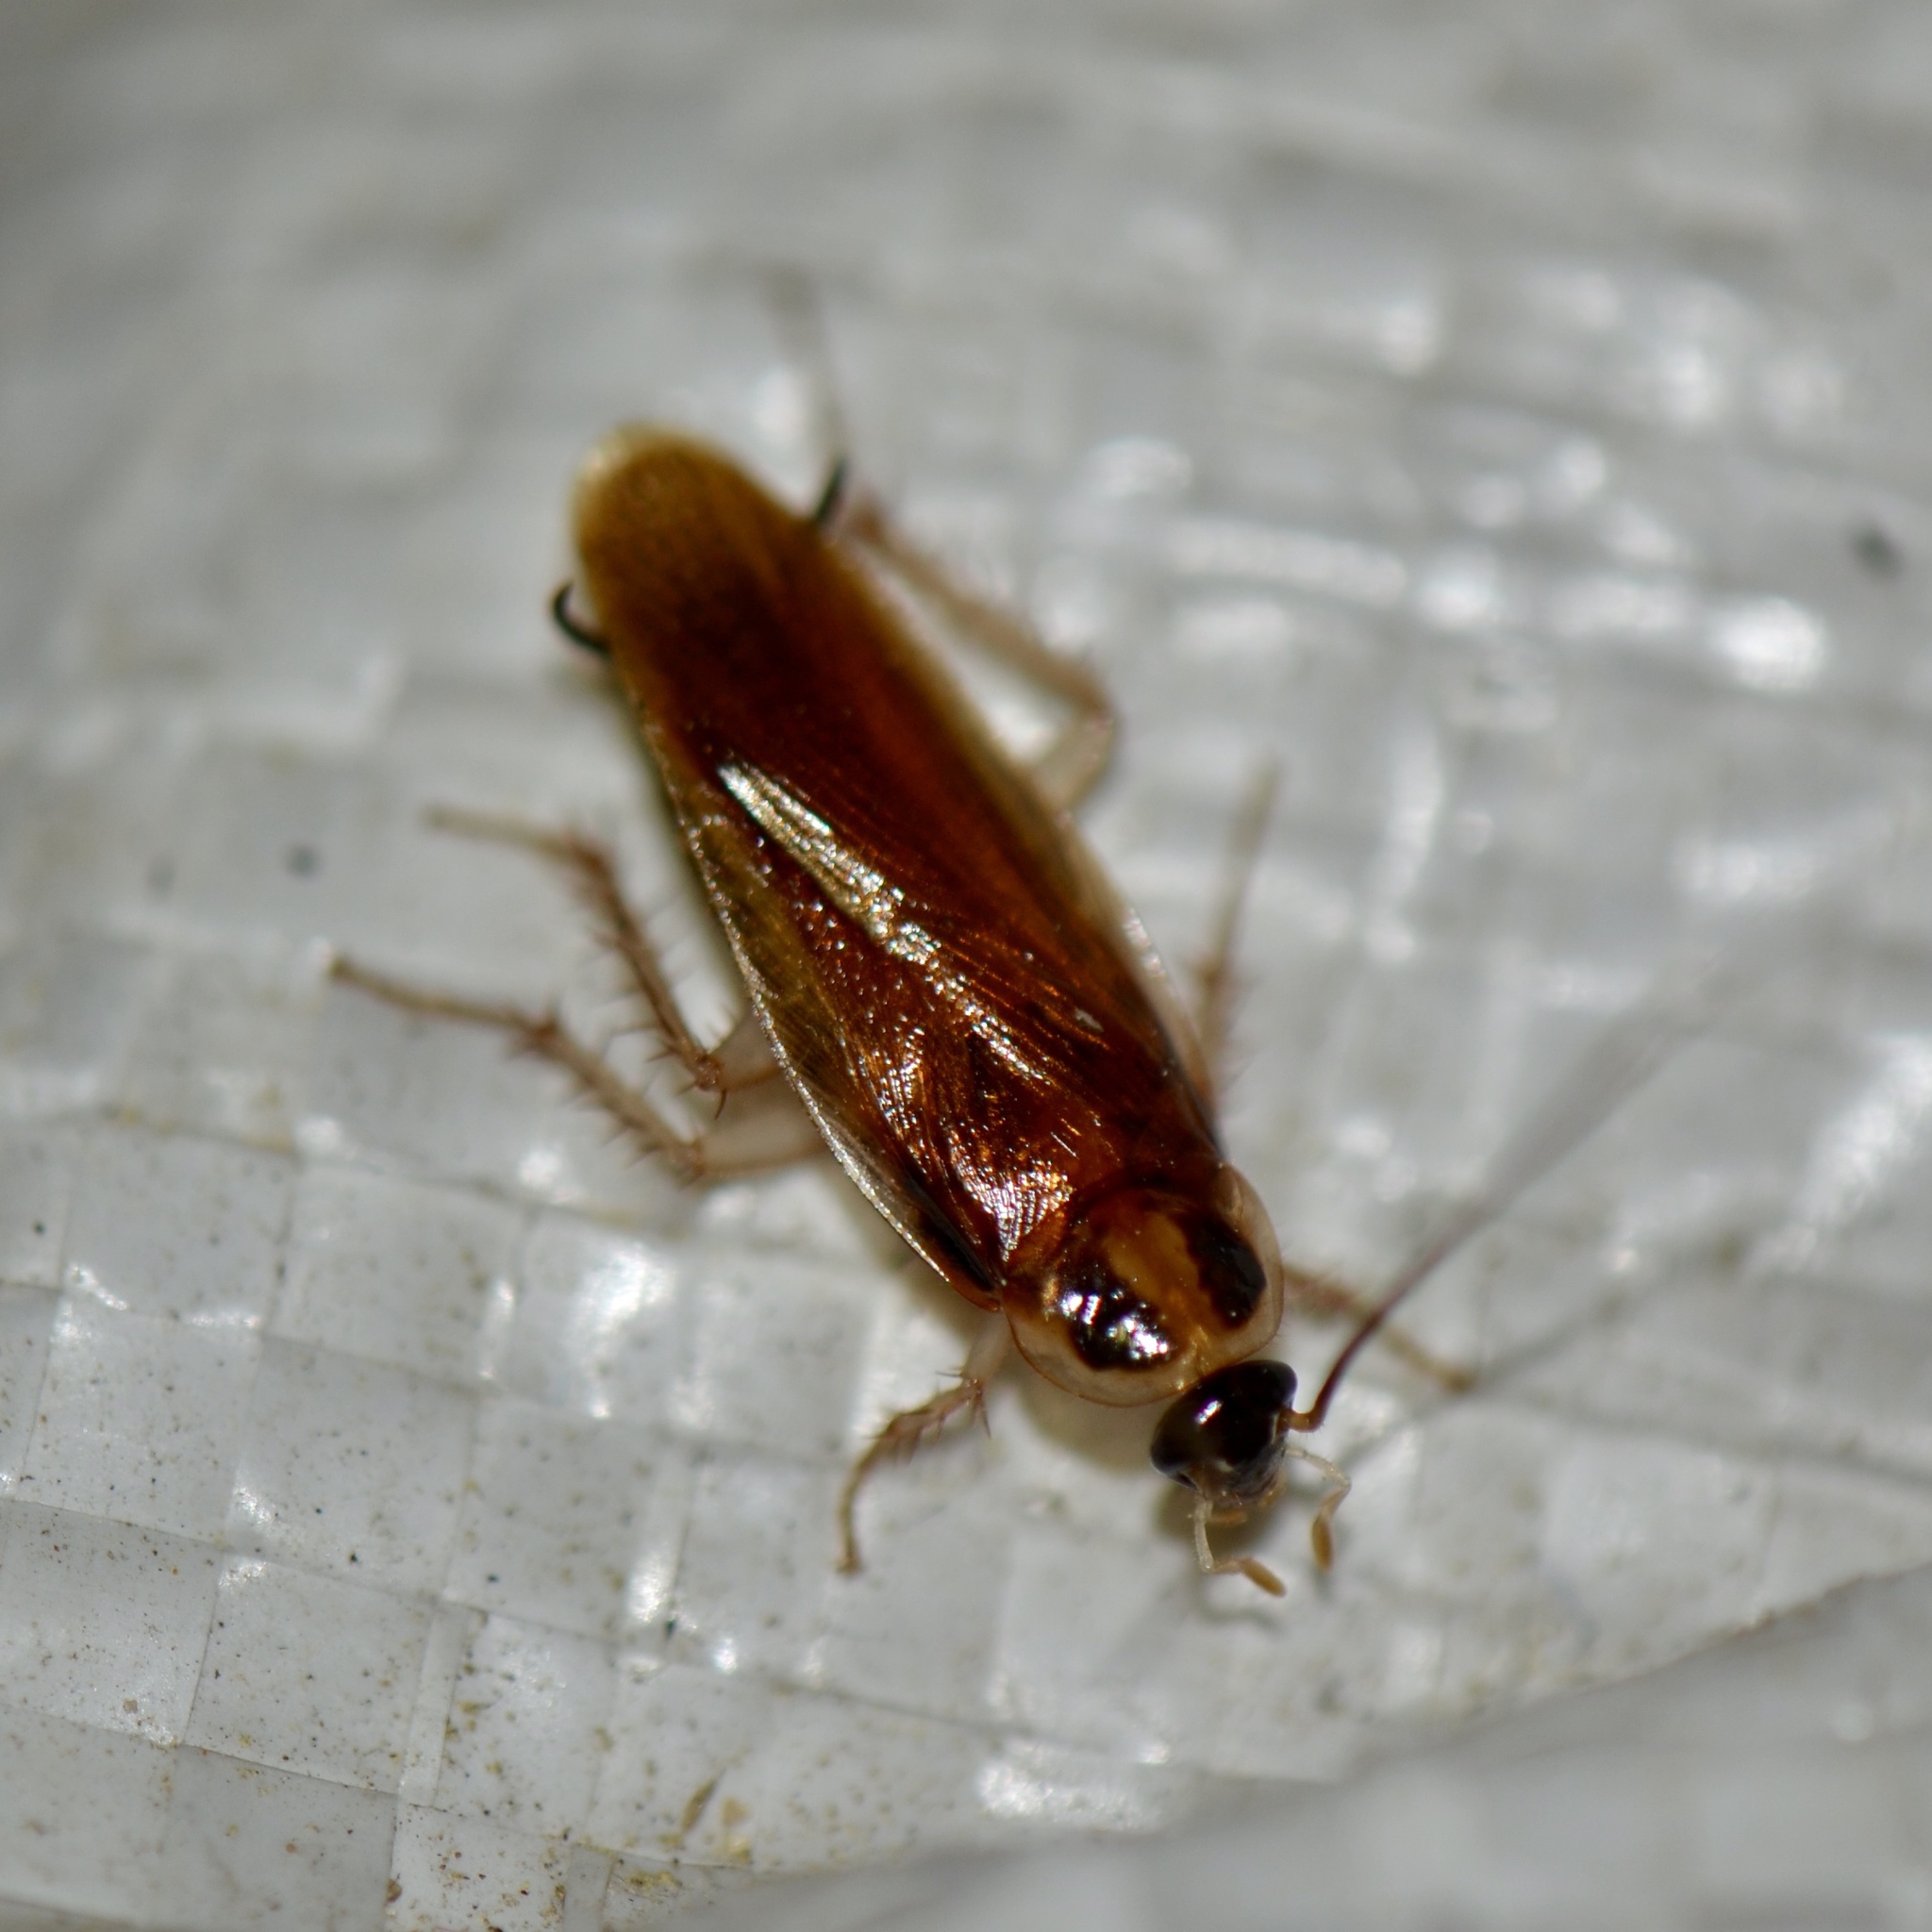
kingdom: Animalia
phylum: Arthropoda
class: Insecta
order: Blattodea
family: Ectobiidae
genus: Ischnoptera
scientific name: Ischnoptera bilunata
